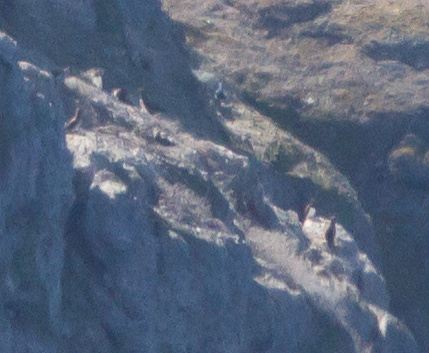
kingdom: Animalia
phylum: Chordata
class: Aves
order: Suliformes
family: Sulidae
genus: Sula
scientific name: Sula leucogaster
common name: Brown booby
